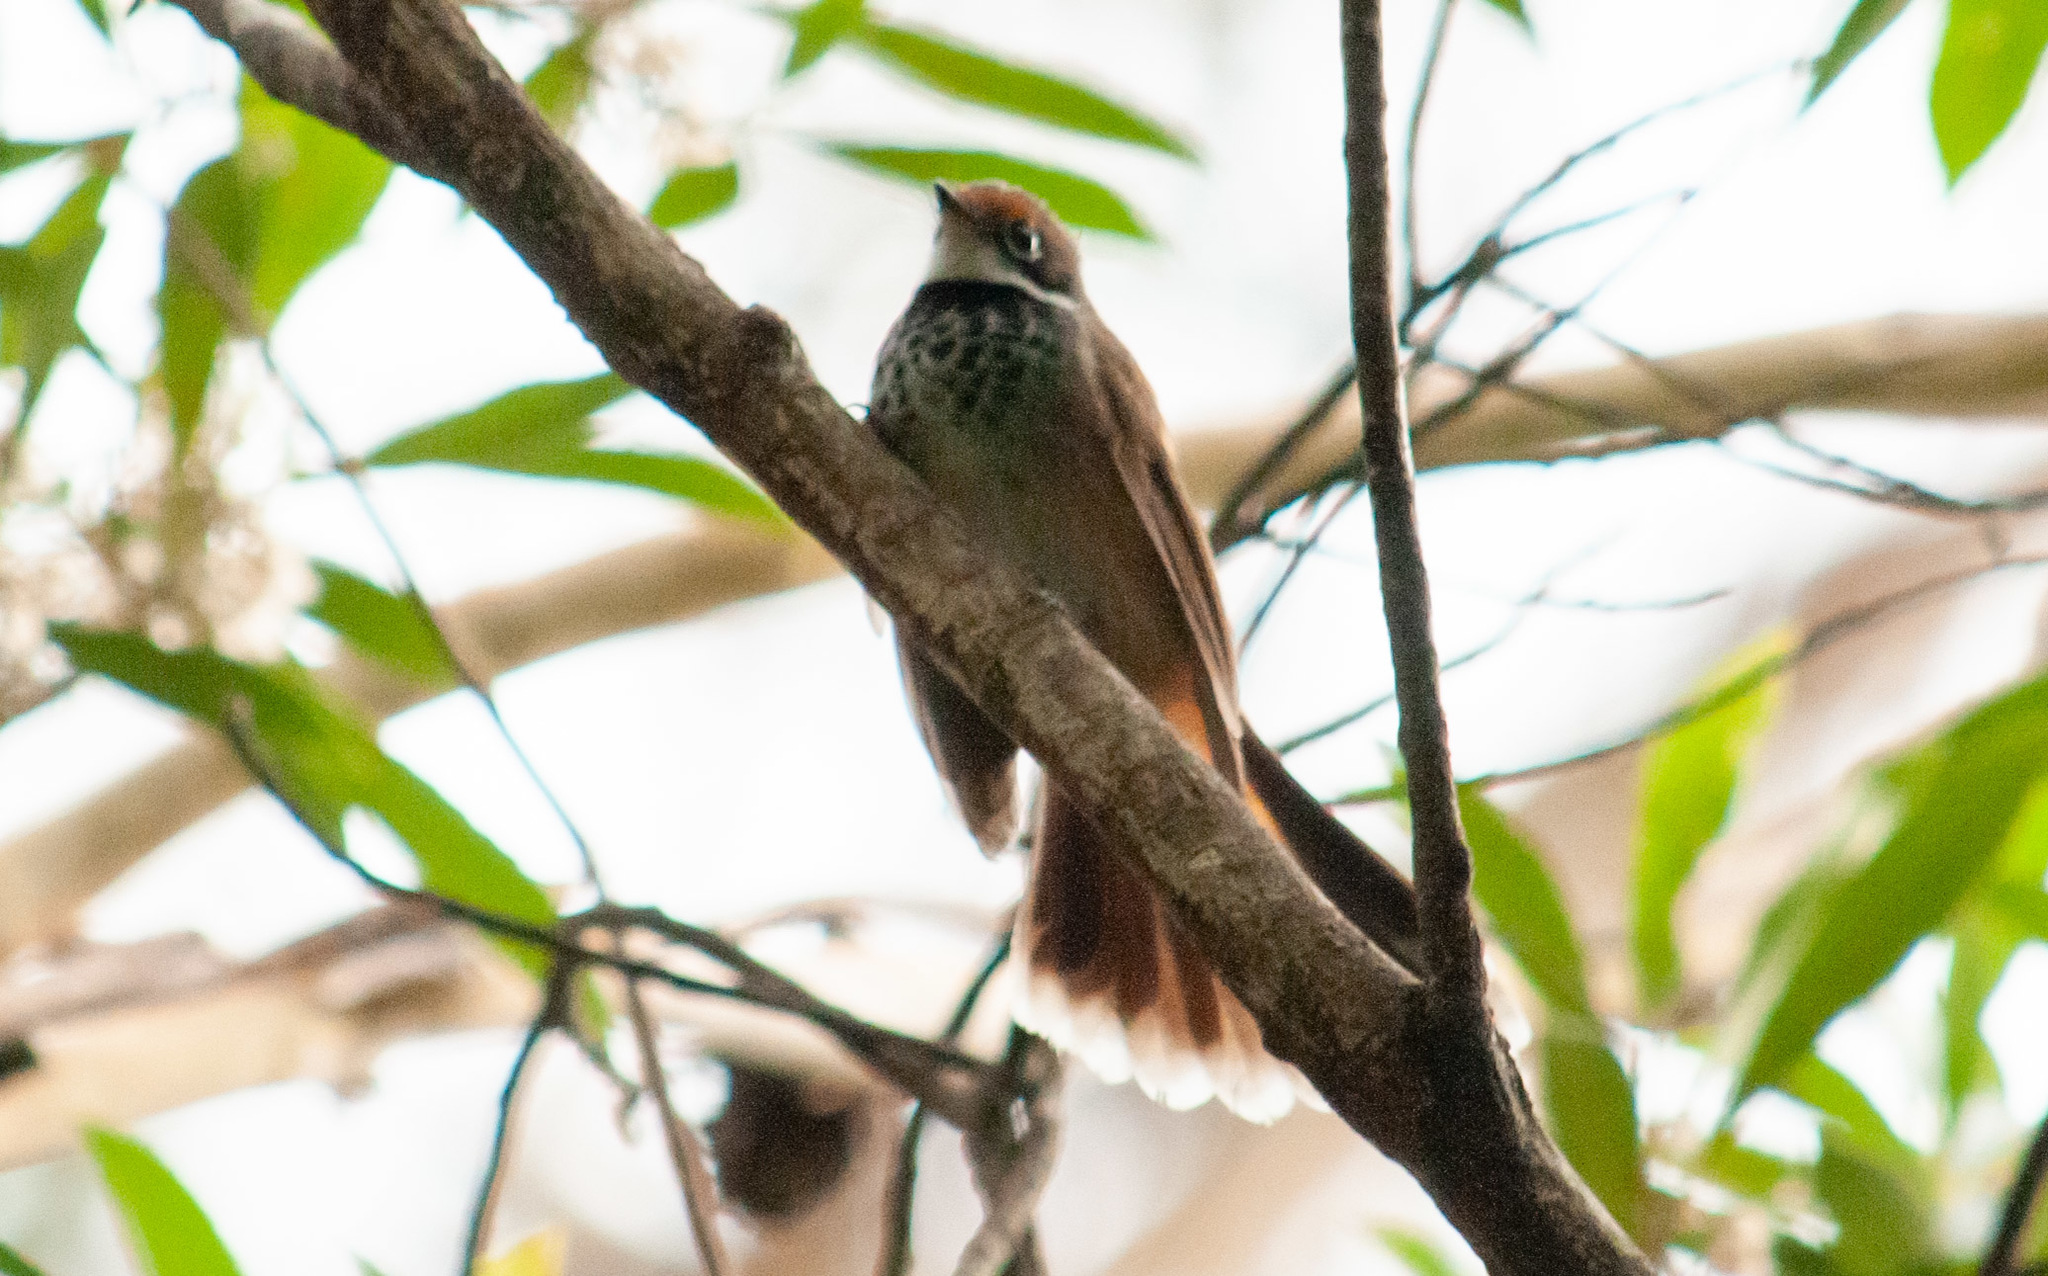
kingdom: Animalia
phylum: Chordata
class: Aves
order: Passeriformes
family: Rhipiduridae
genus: Rhipidura
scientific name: Rhipidura rufifrons
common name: Rufous fantail
